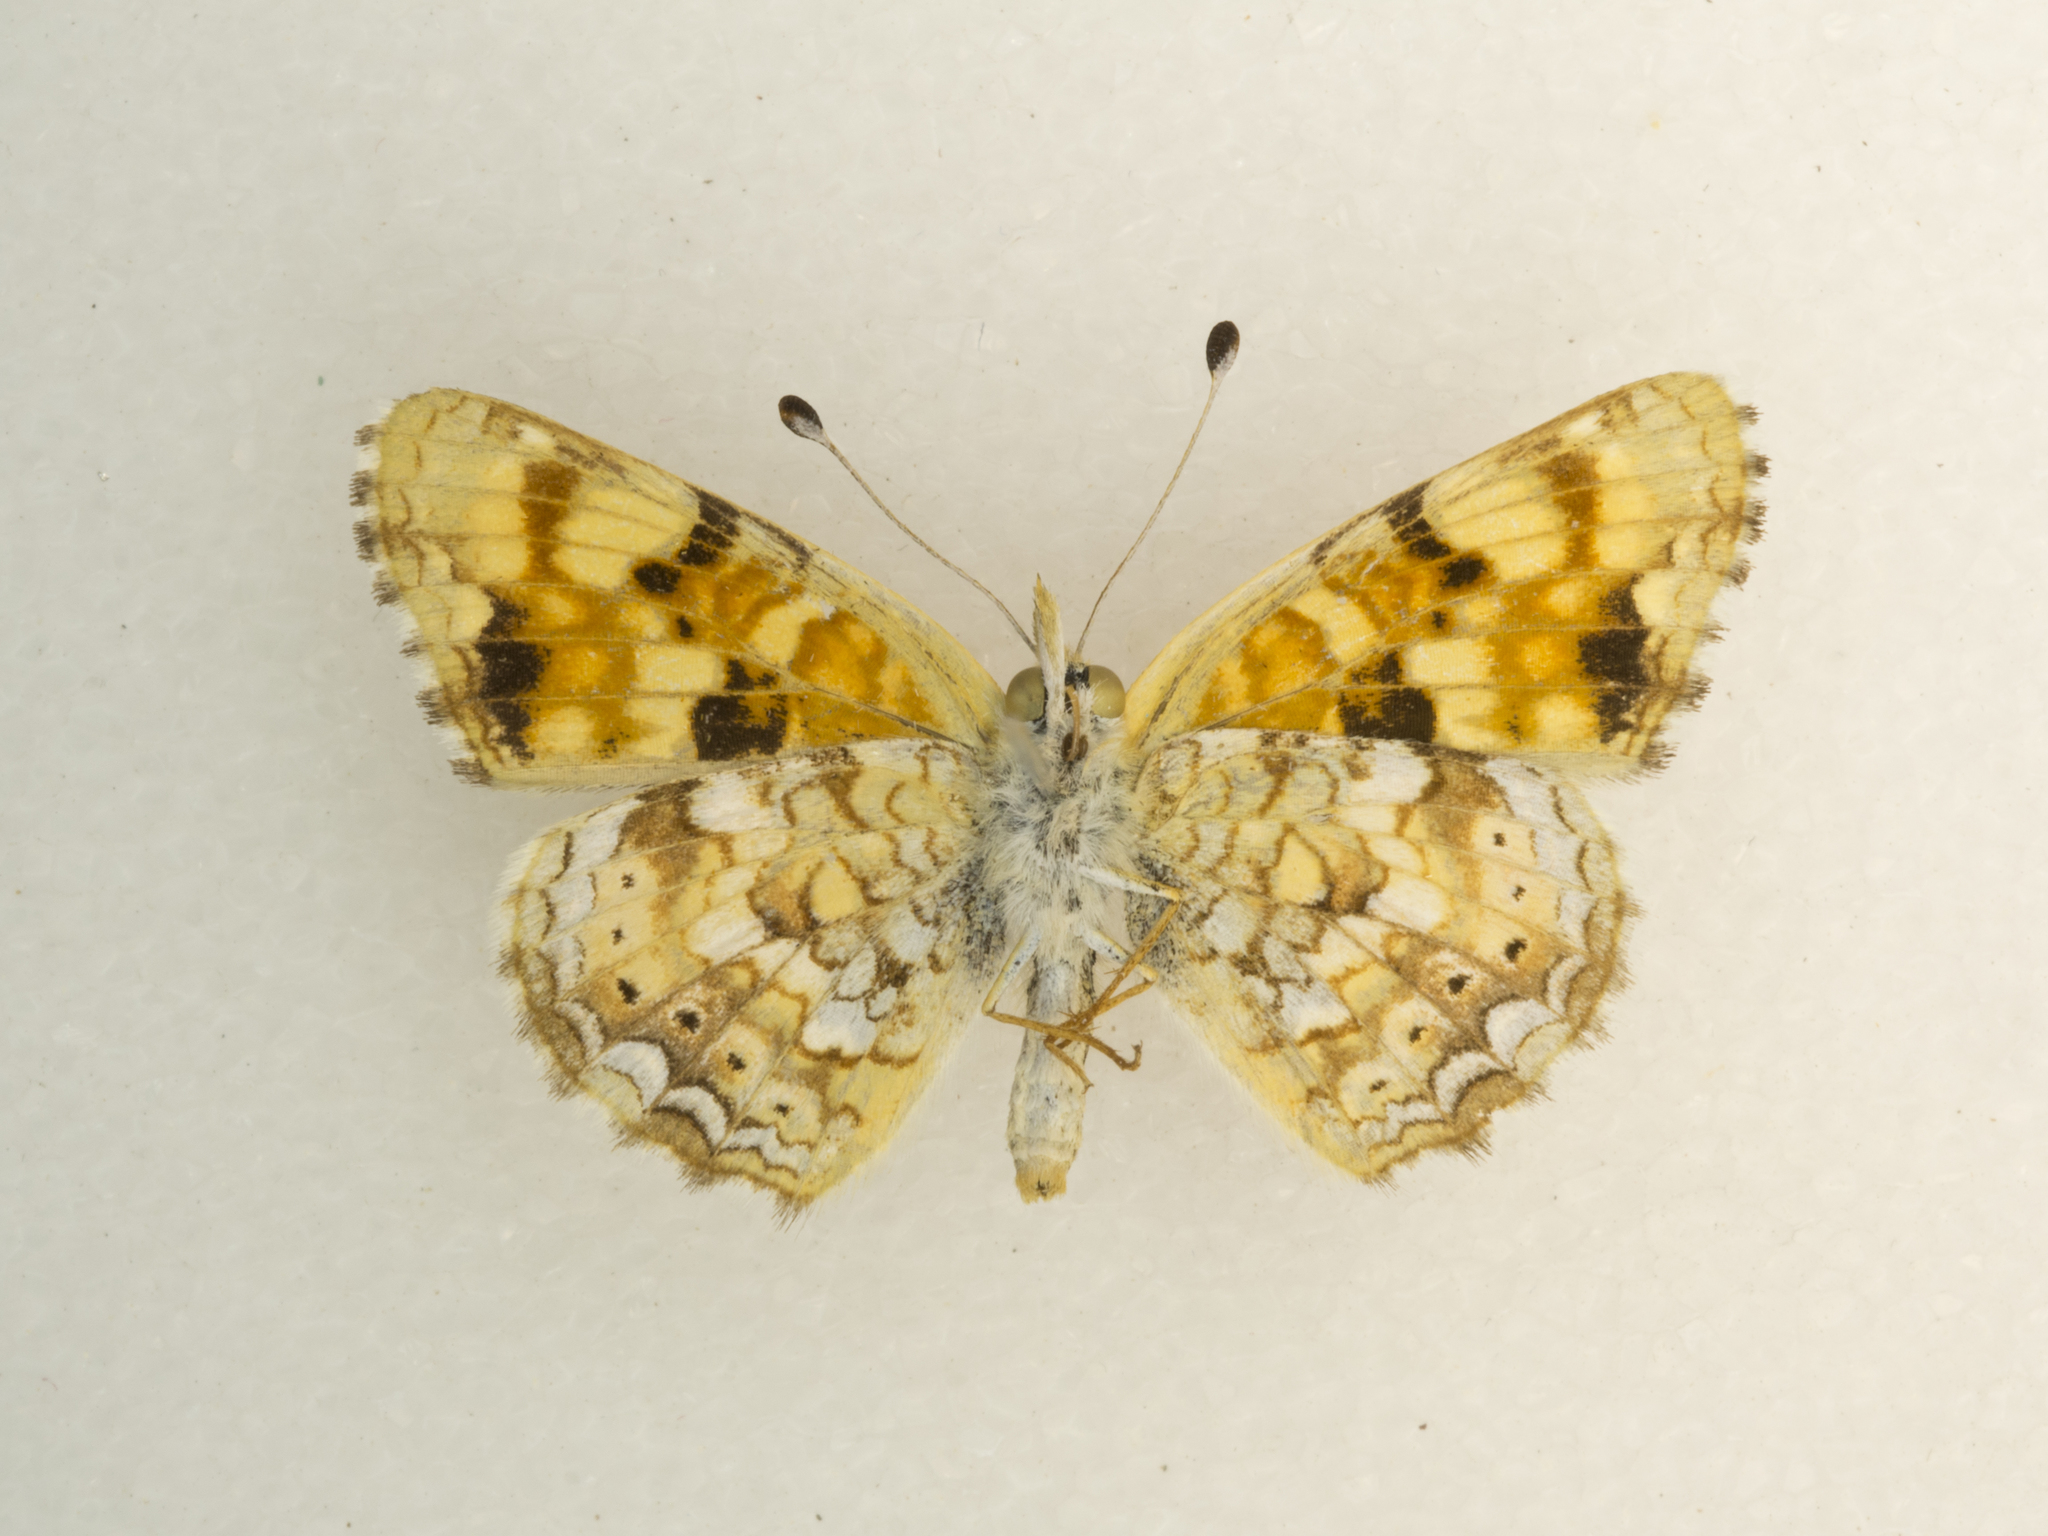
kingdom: Animalia
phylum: Arthropoda
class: Insecta
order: Lepidoptera
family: Nymphalidae
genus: Phyciodes
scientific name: Phyciodes tharos
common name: Pearl crescent
